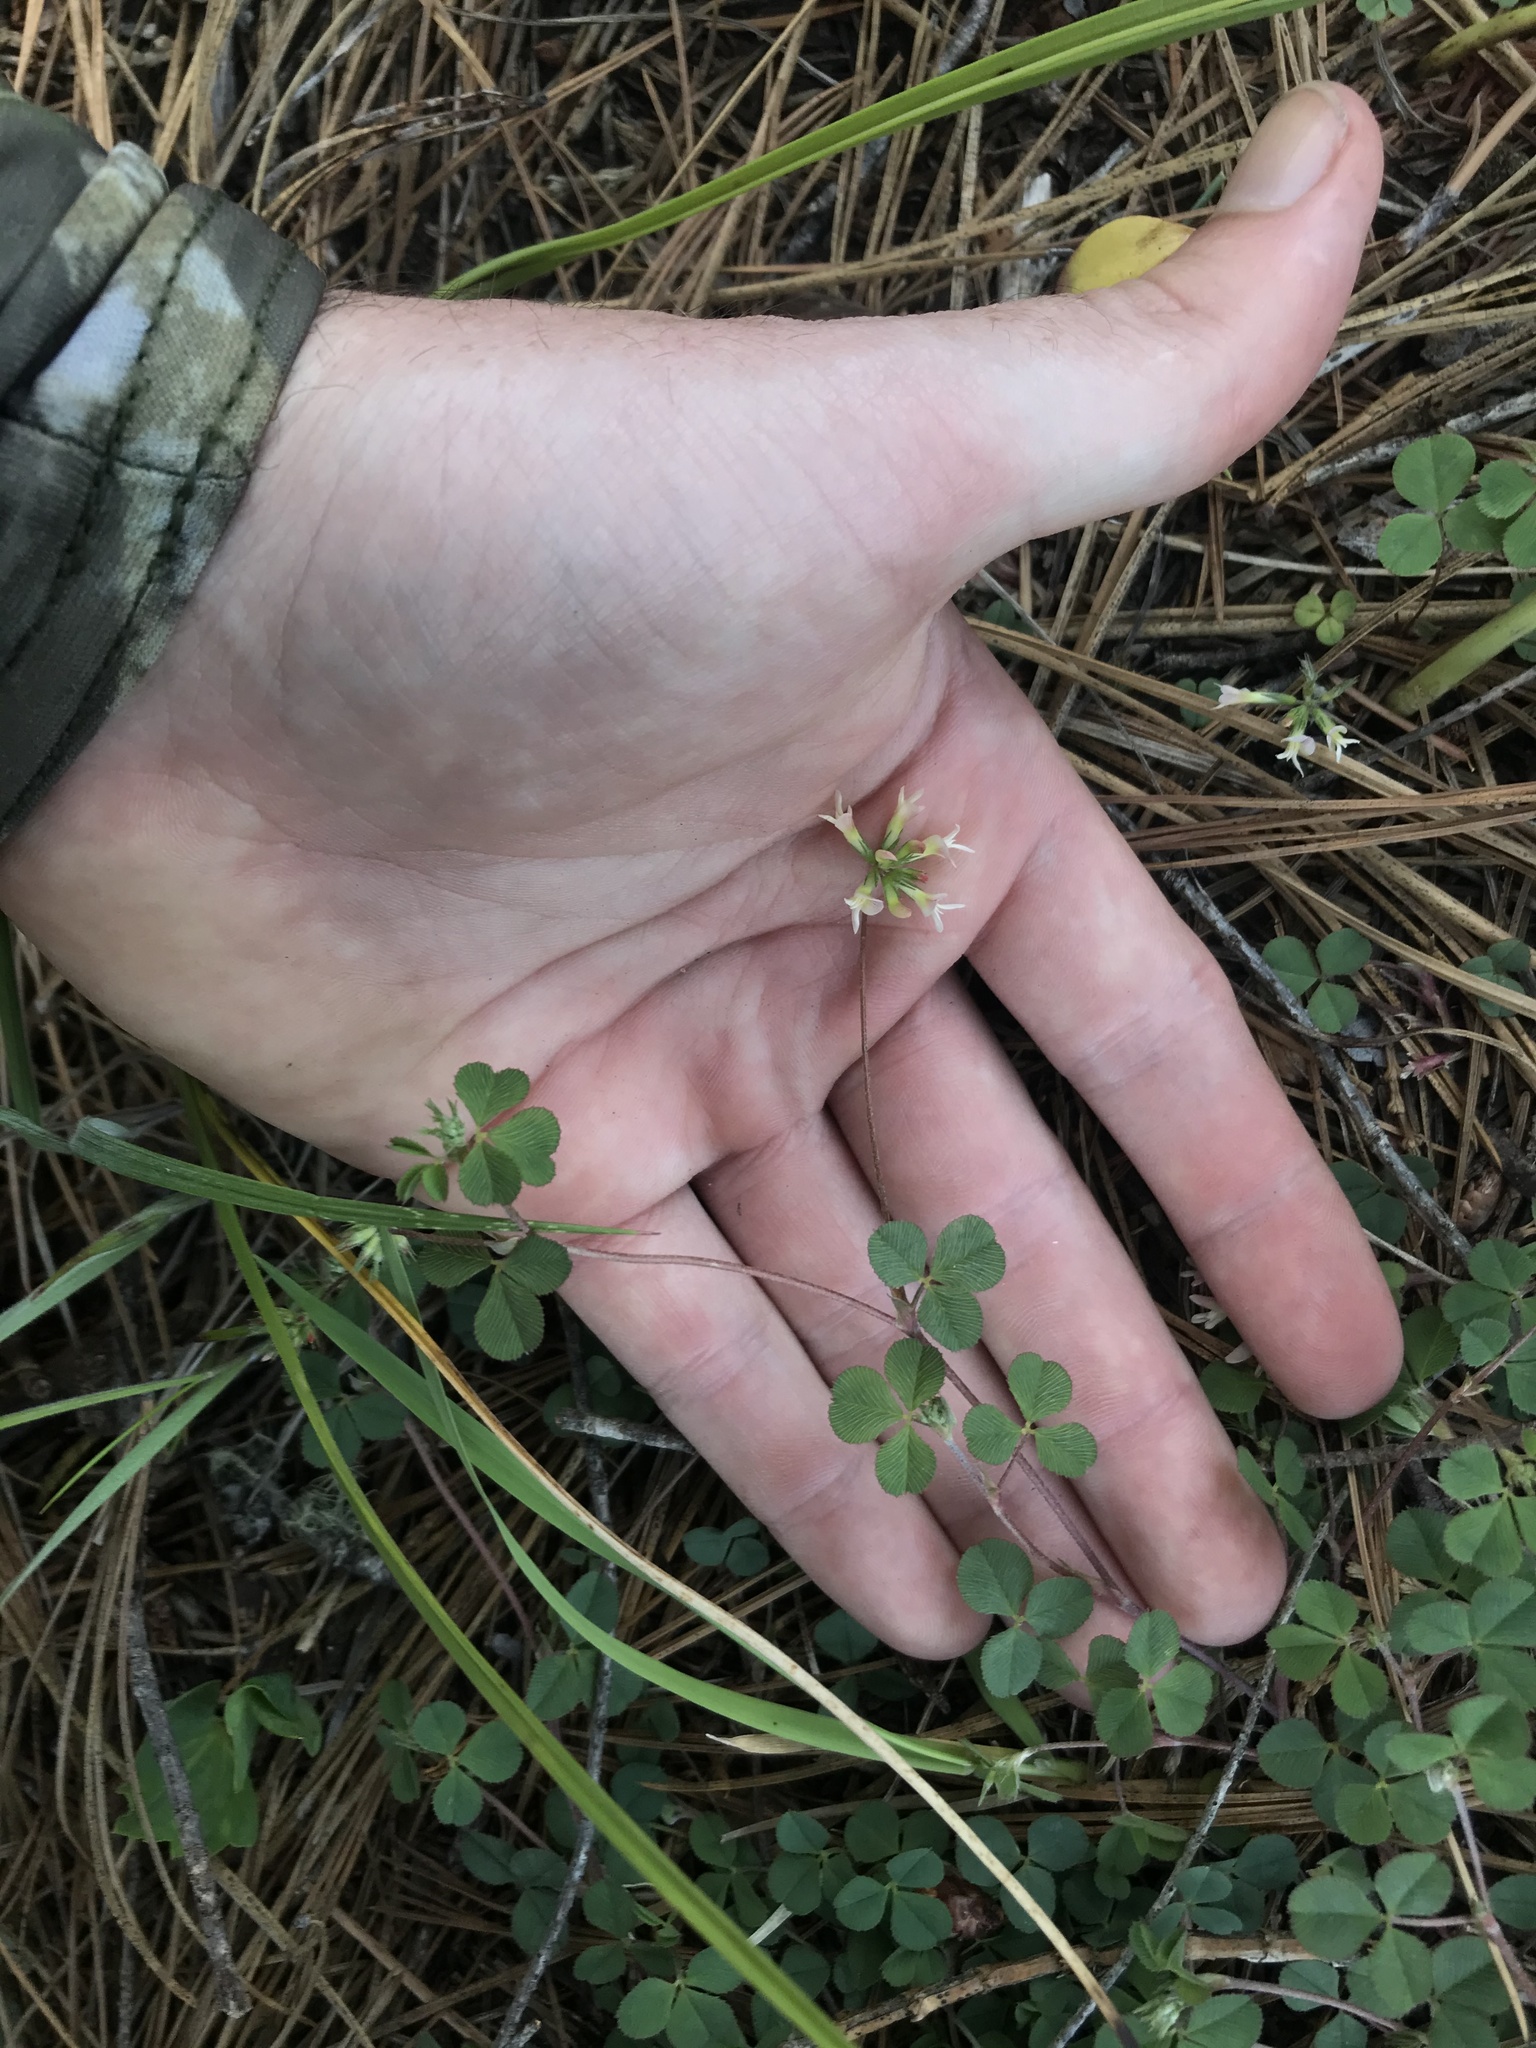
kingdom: Plantae
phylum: Tracheophyta
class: Magnoliopsida
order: Fabales
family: Fabaceae
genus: Trifolium
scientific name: Trifolium breweri
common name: Forest clover
